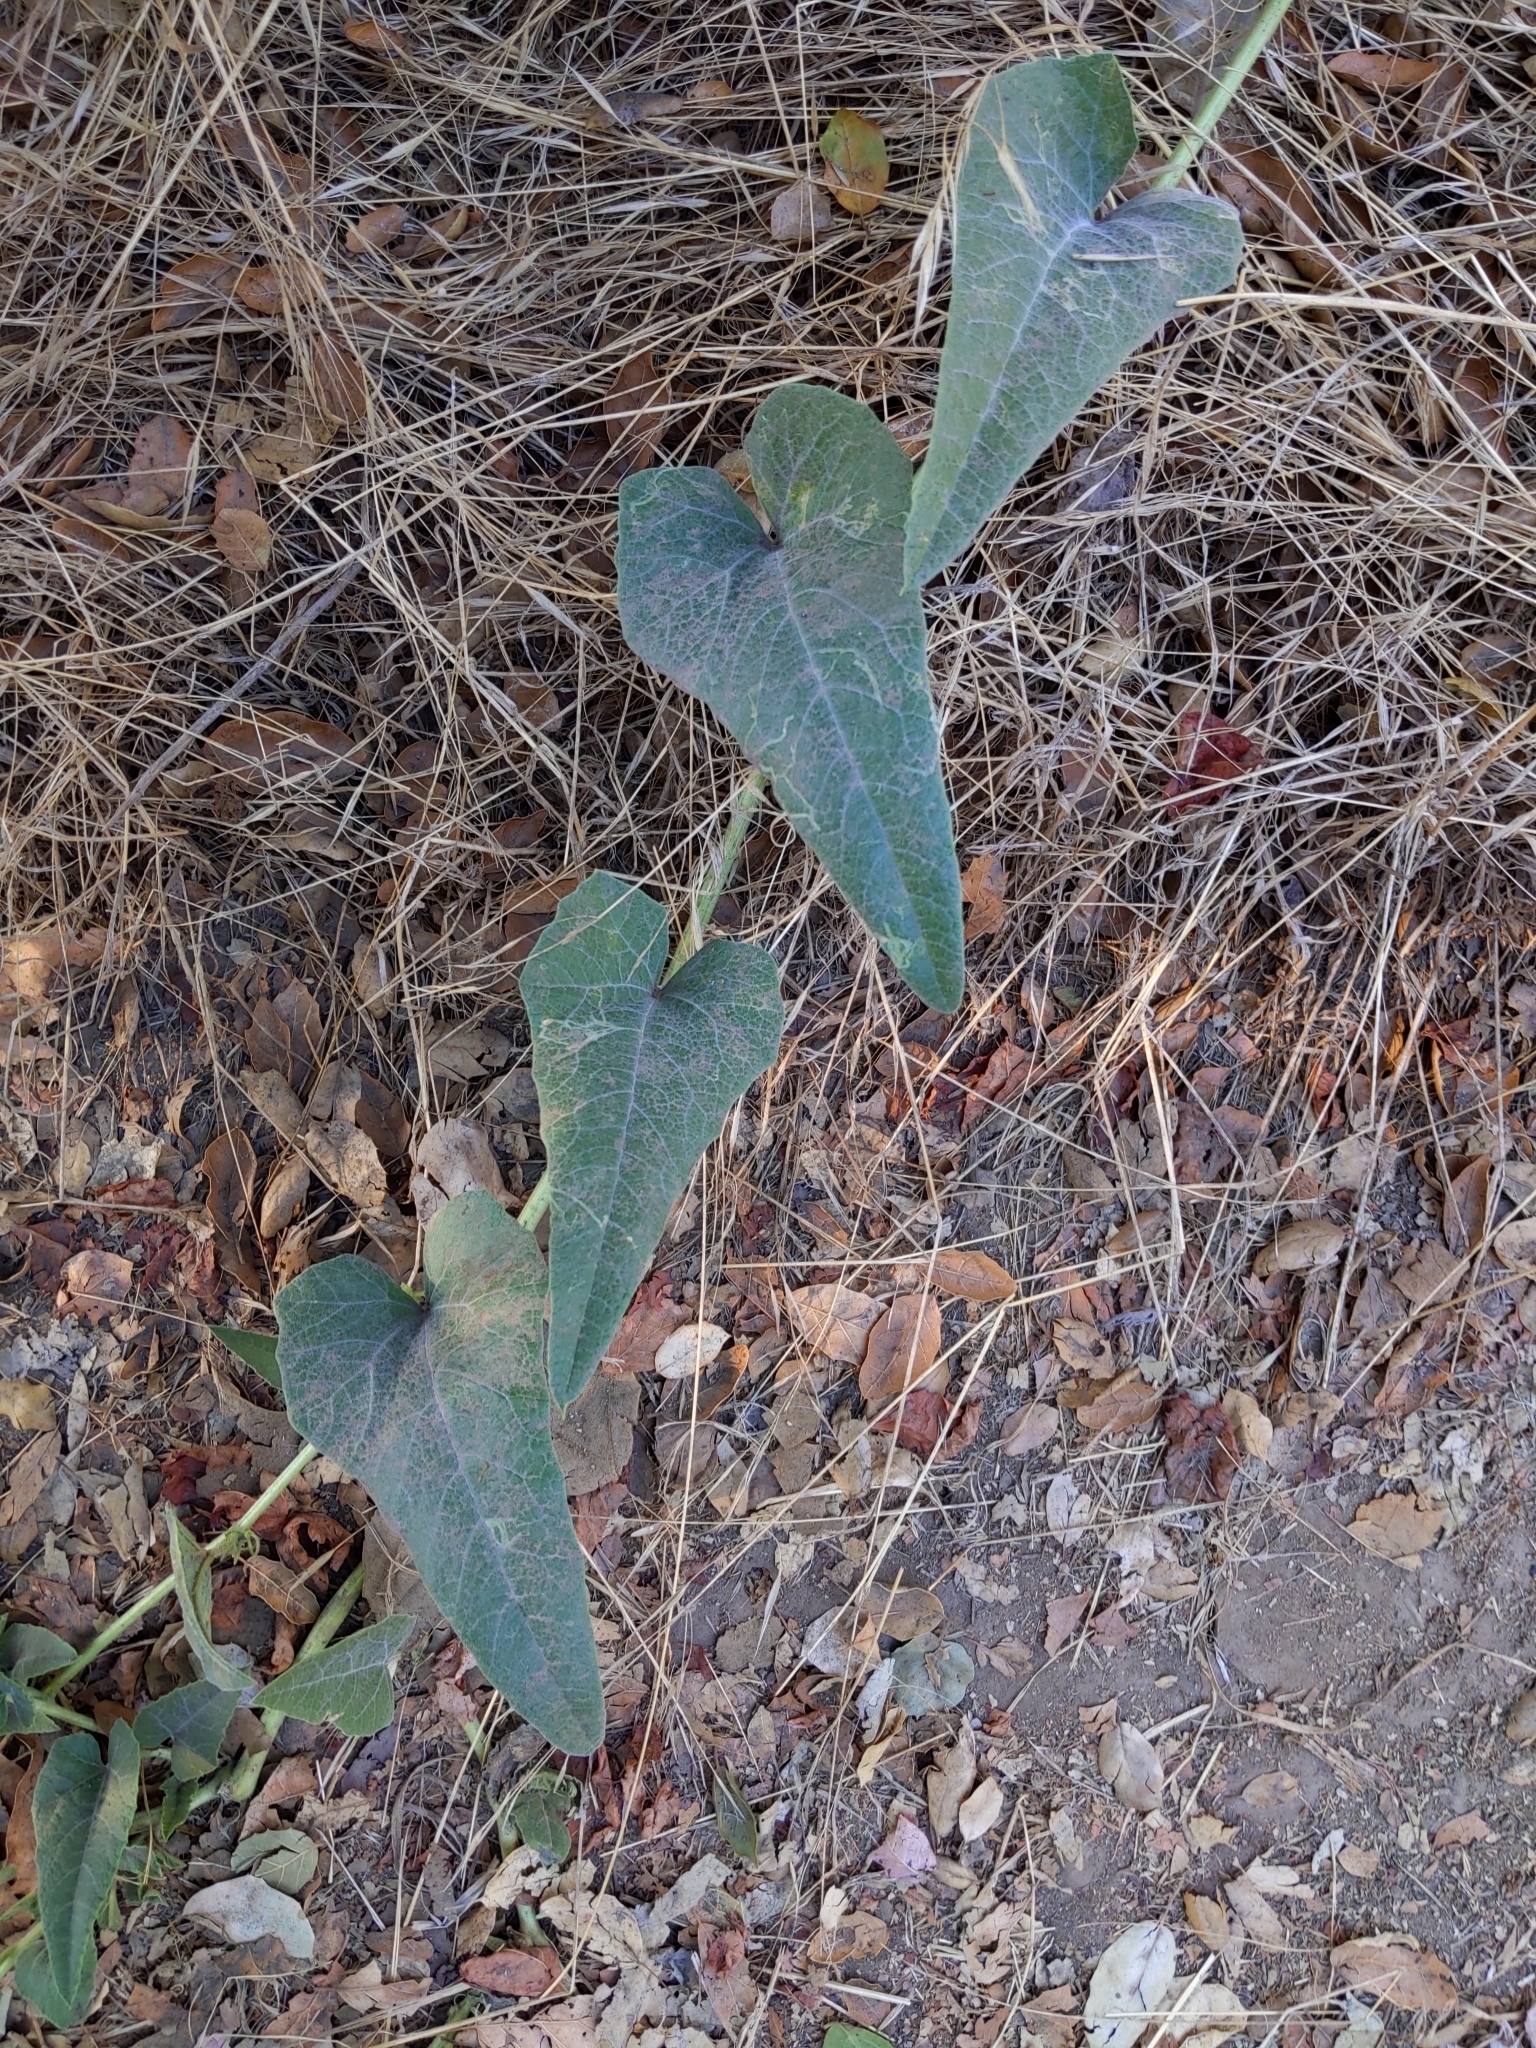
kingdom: Plantae
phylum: Tracheophyta
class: Magnoliopsida
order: Cucurbitales
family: Cucurbitaceae
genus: Cucurbita
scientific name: Cucurbita foetidissima
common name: Buffalo gourd
